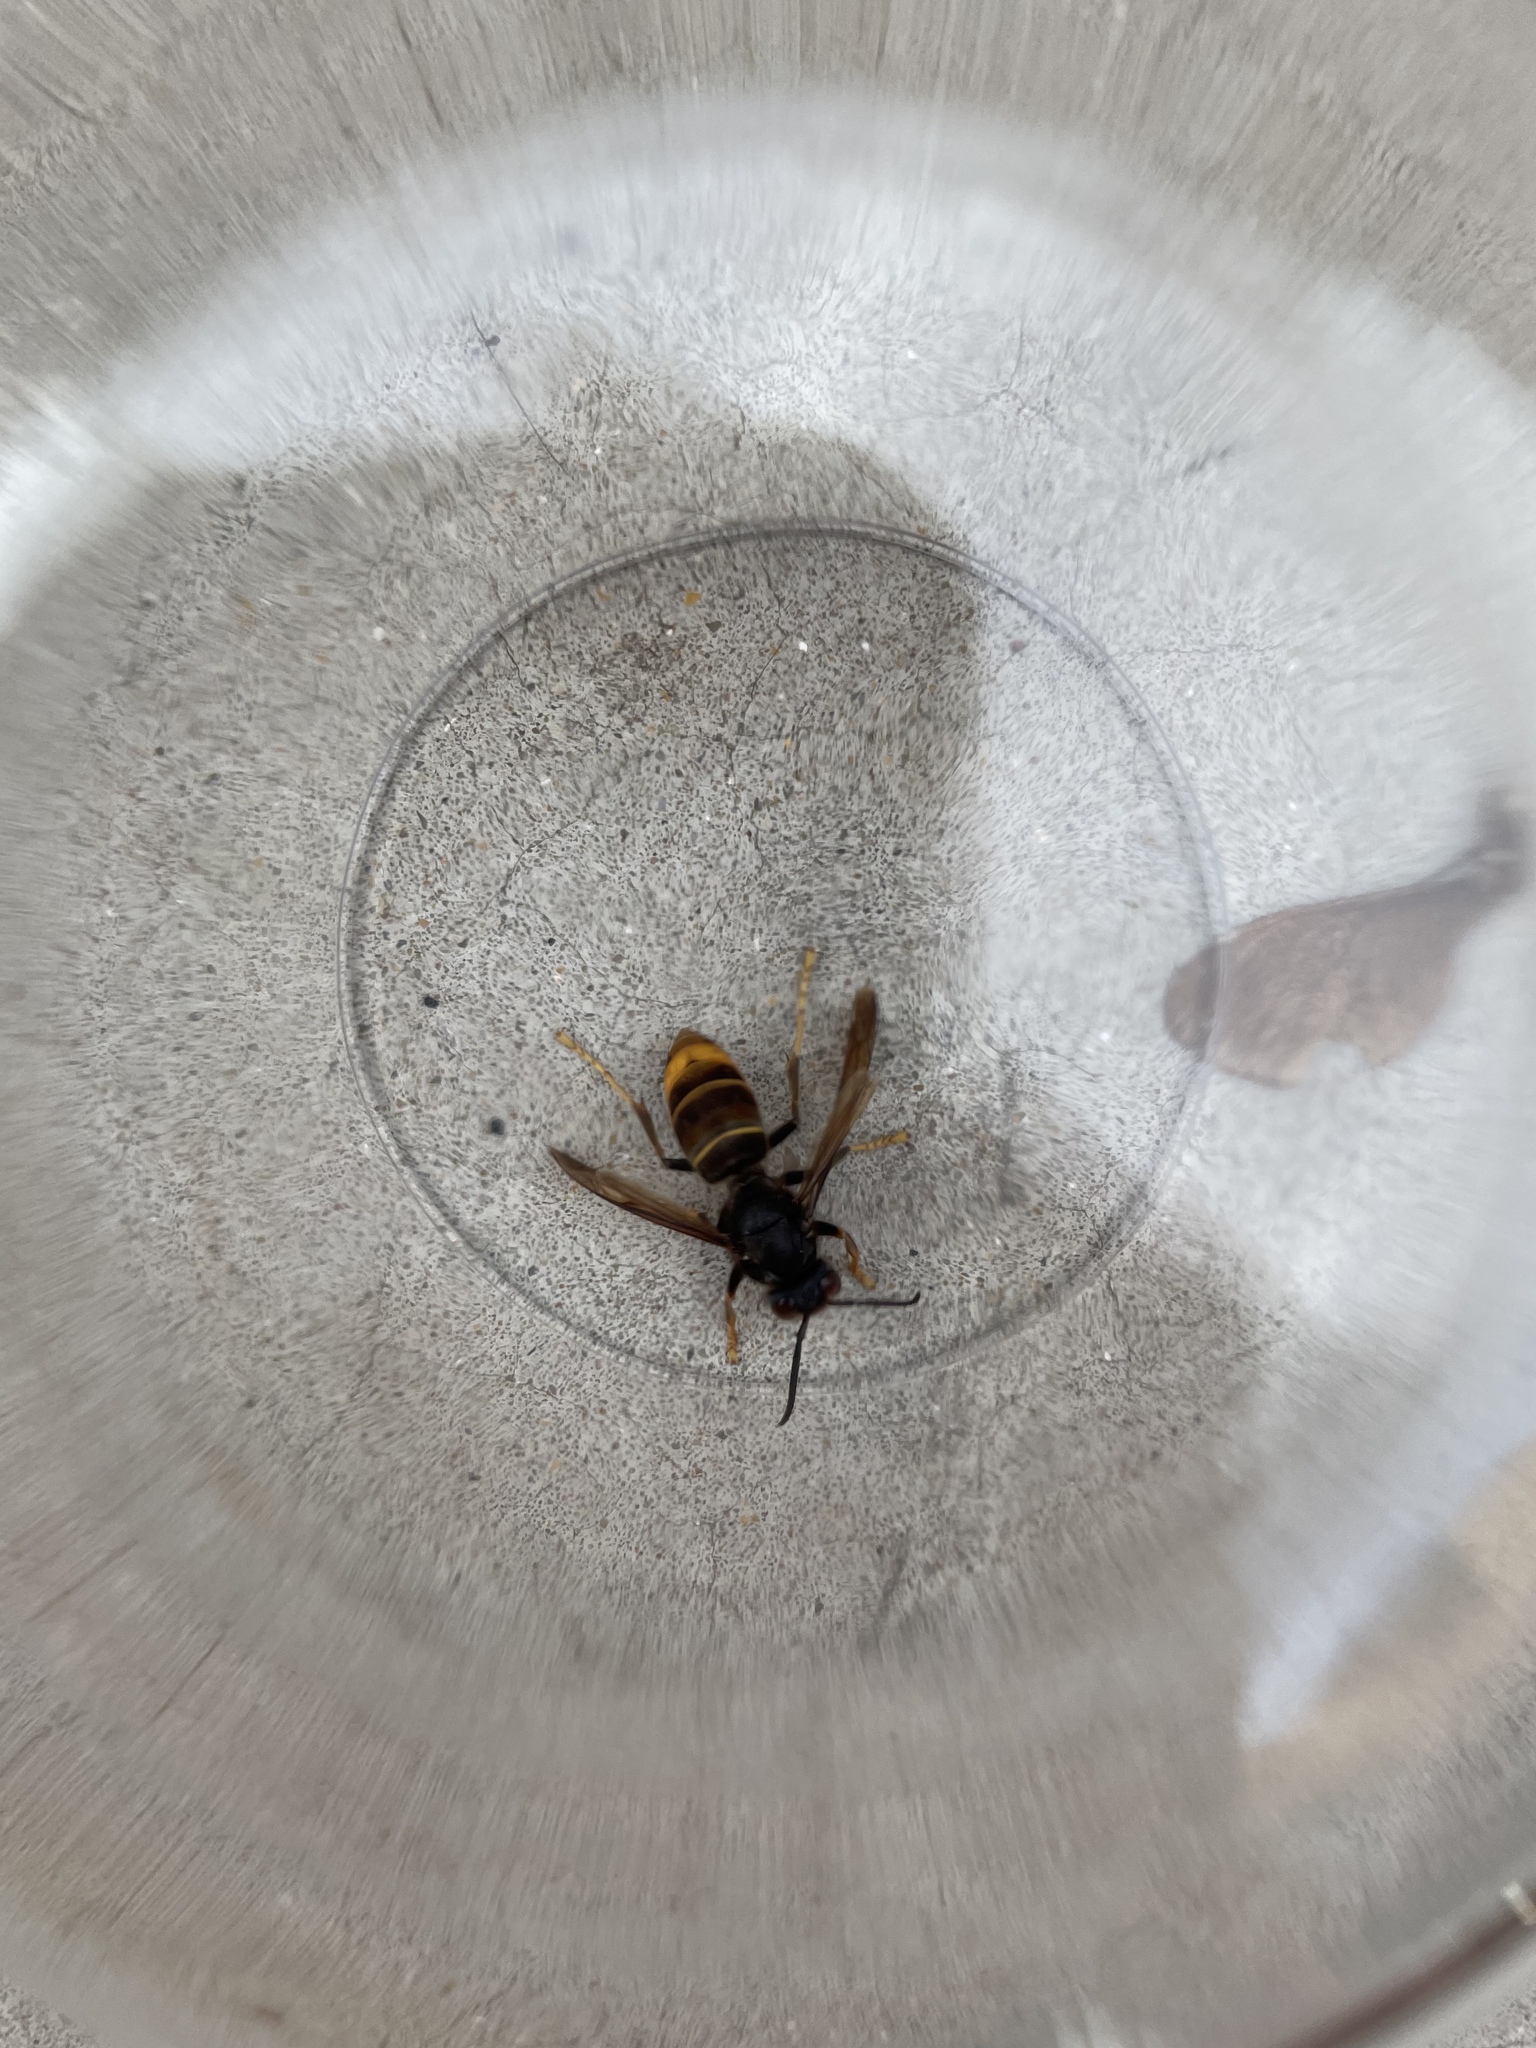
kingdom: Animalia
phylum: Arthropoda
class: Insecta
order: Hymenoptera
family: Vespidae
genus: Vespa
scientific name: Vespa velutina
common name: Asian hornet
